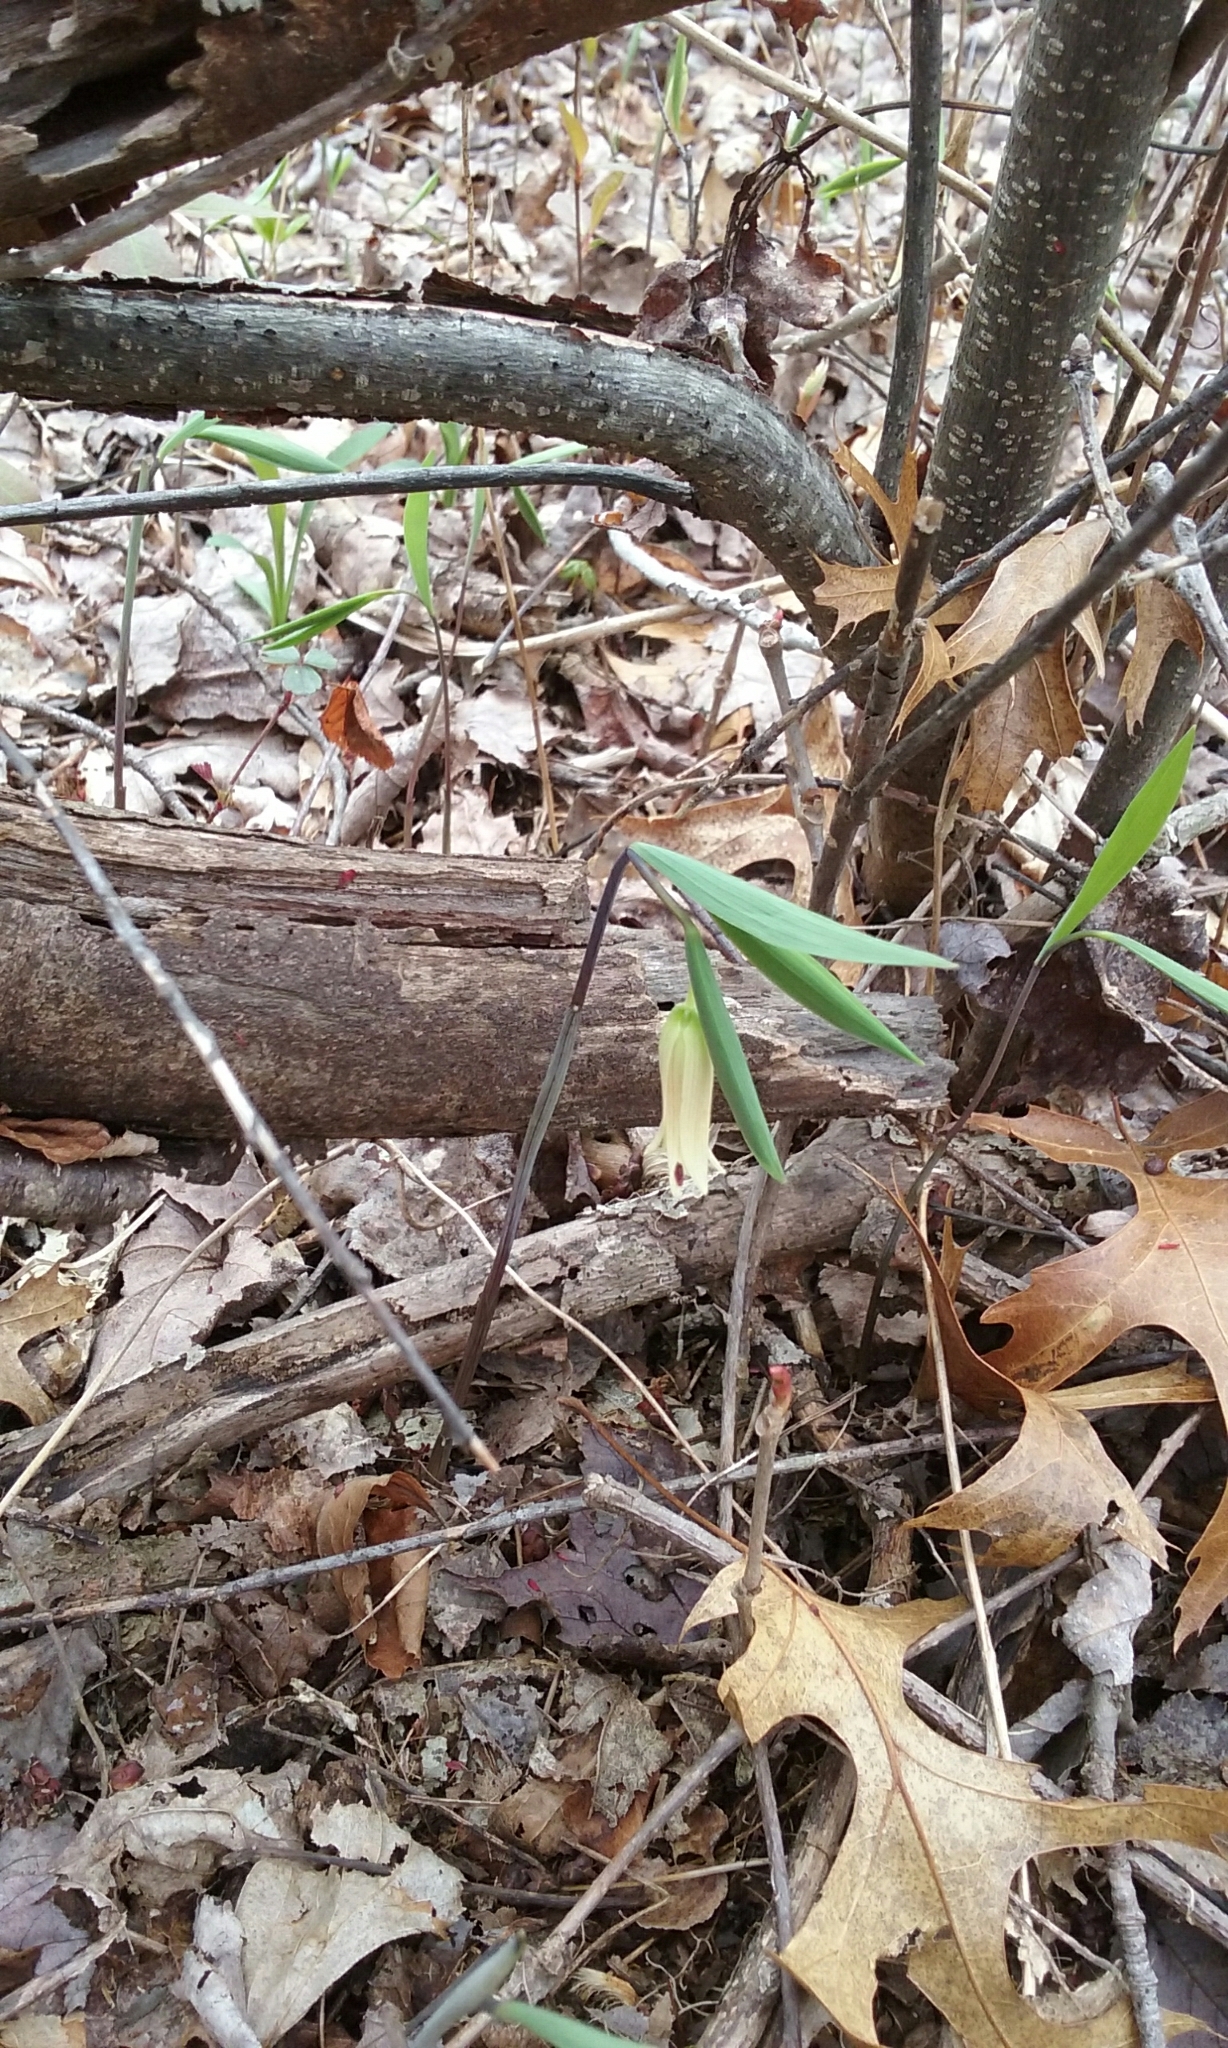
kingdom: Plantae
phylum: Tracheophyta
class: Liliopsida
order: Liliales
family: Colchicaceae
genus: Uvularia
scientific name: Uvularia sessilifolia
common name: Straw-lily
